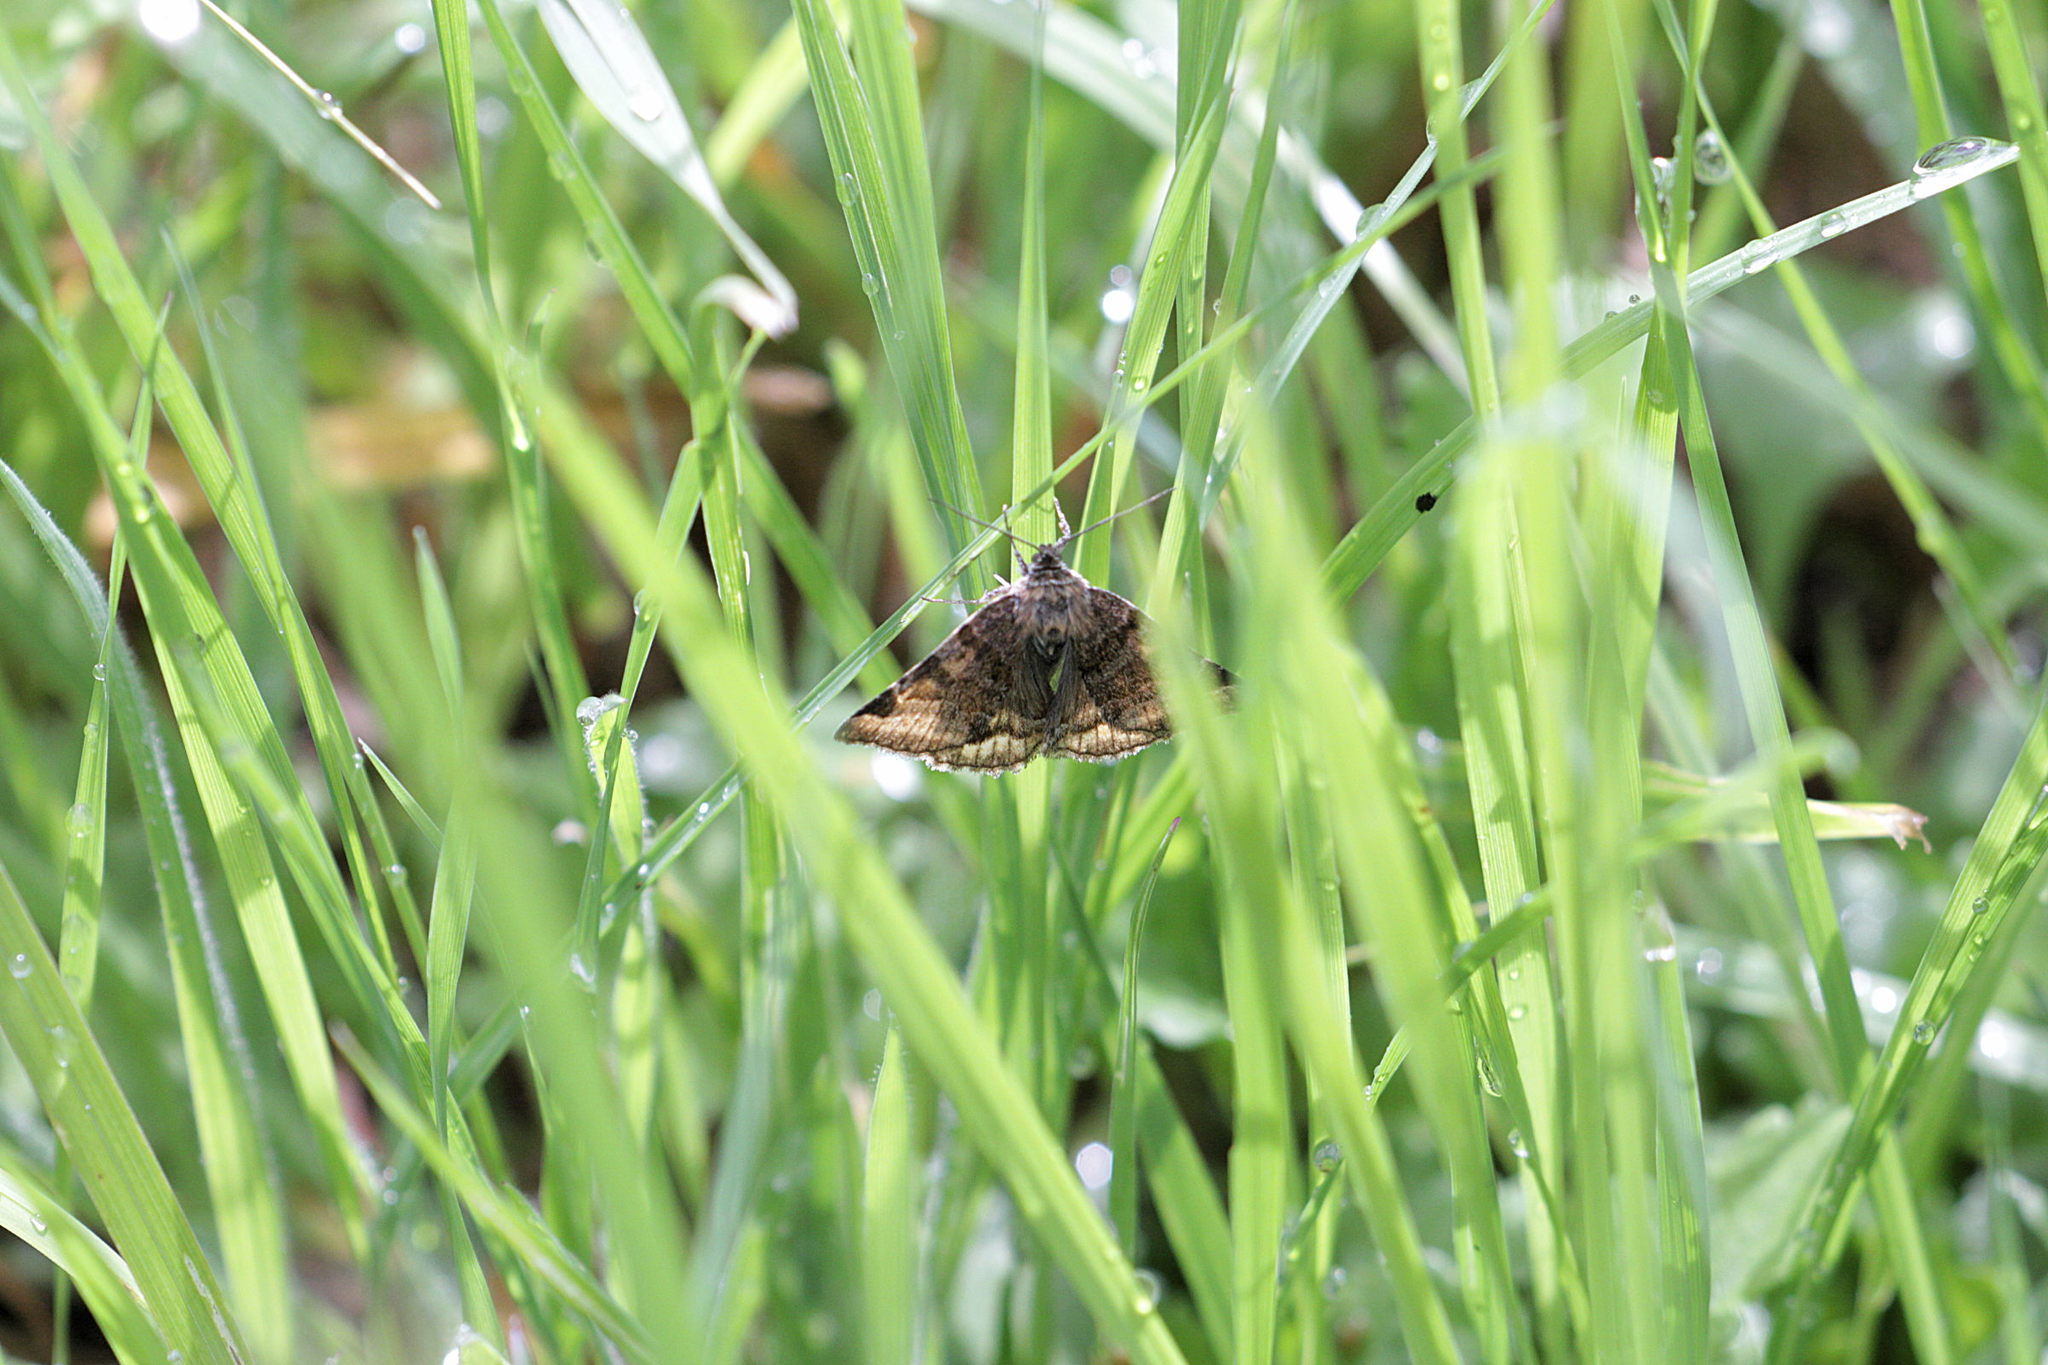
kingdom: Animalia
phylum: Arthropoda
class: Insecta
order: Lepidoptera
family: Erebidae
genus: Euclidia
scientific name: Euclidia glyphica
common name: Burnet companion
